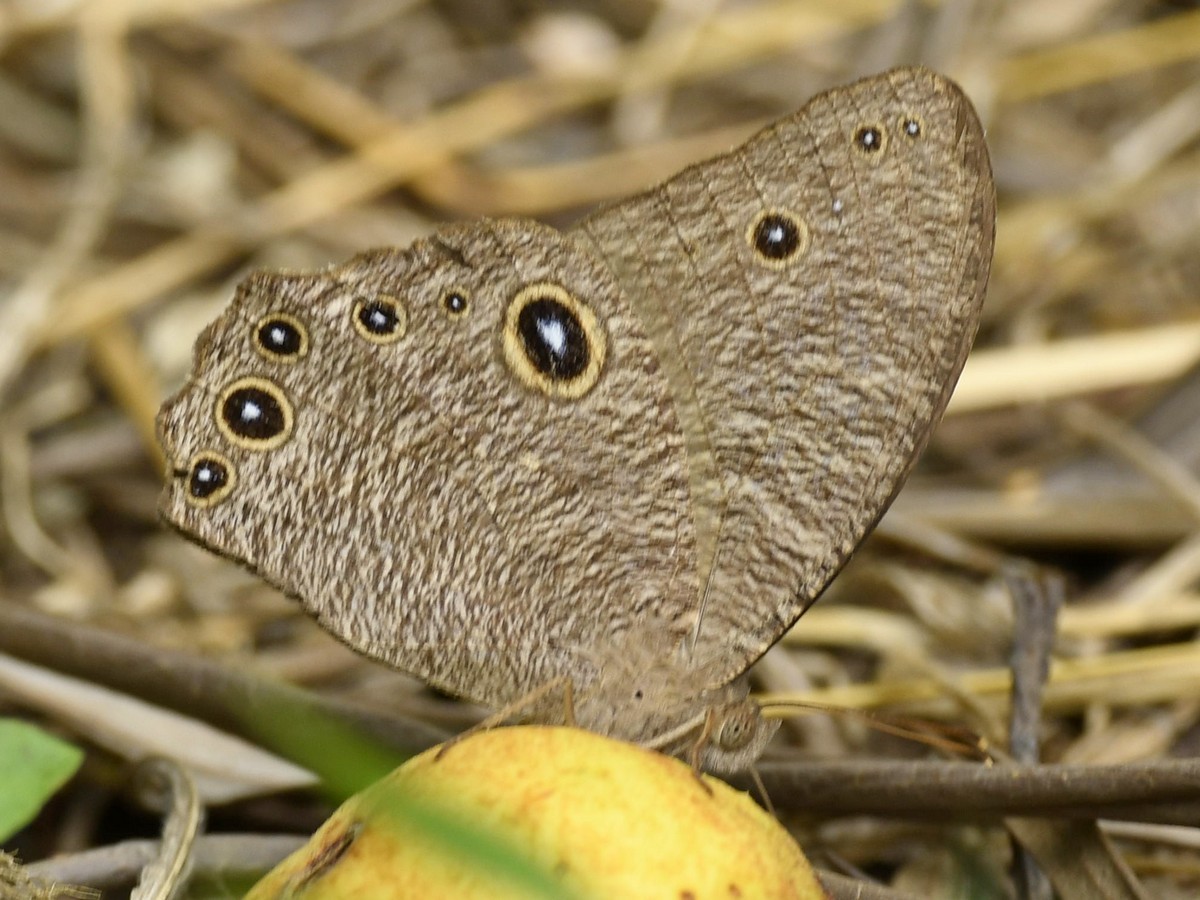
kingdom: Animalia
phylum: Arthropoda
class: Insecta
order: Lepidoptera
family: Nymphalidae
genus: Melanitis
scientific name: Melanitis leda
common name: Twilight brown
